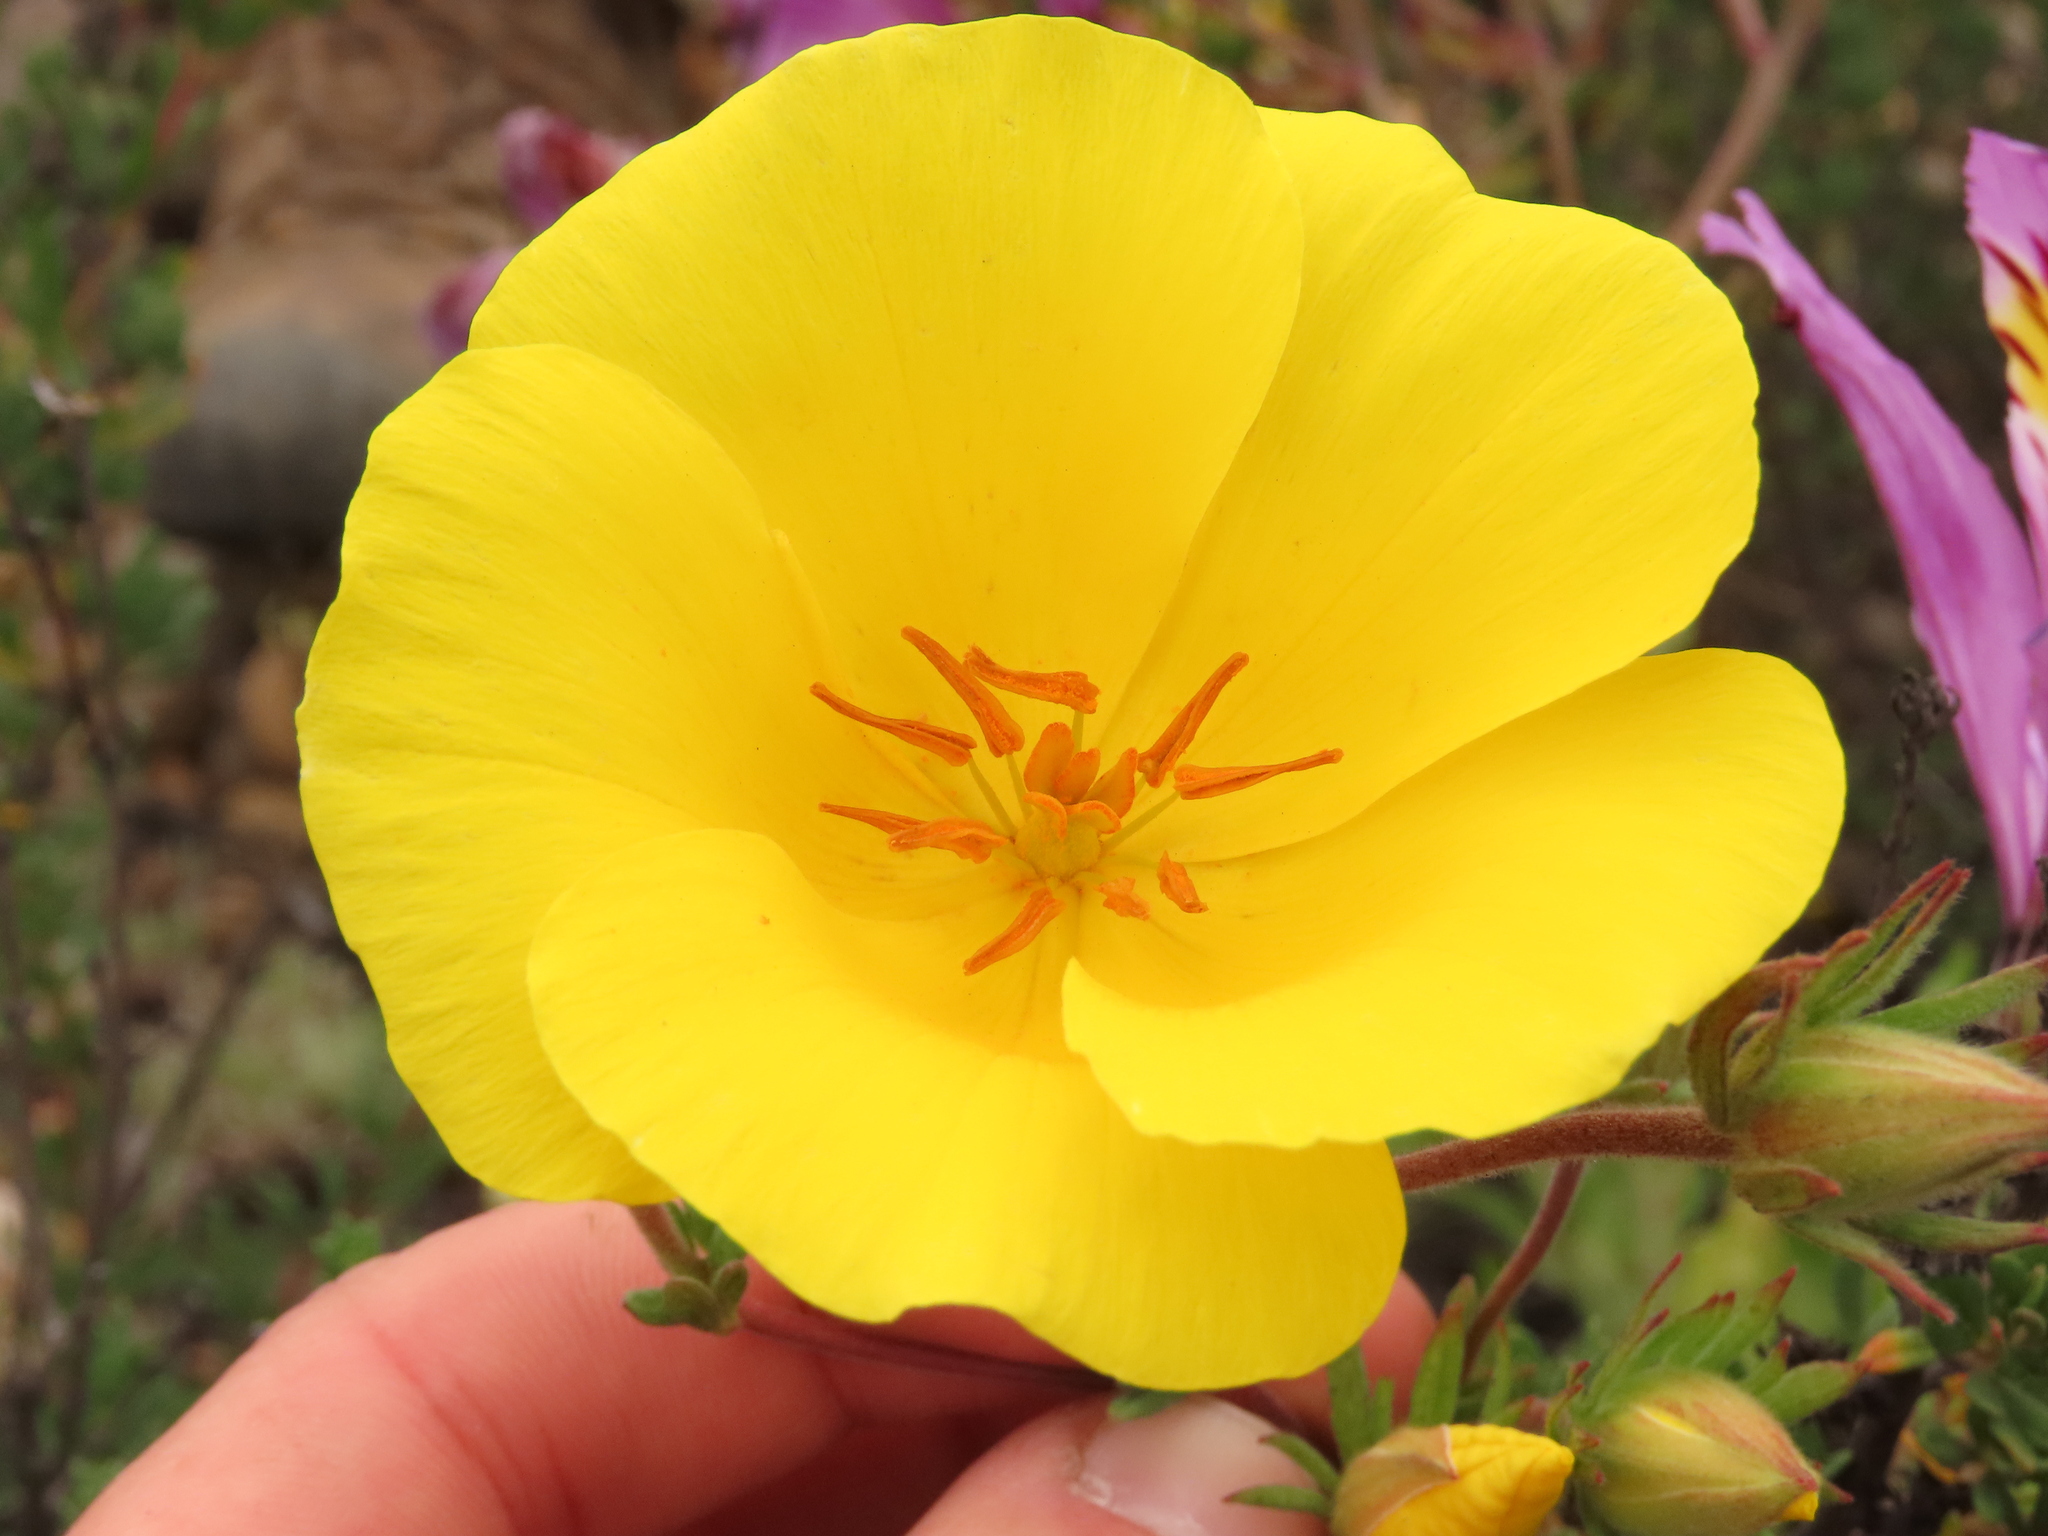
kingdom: Plantae
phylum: Tracheophyta
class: Magnoliopsida
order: Geraniales
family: Vivianiaceae
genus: Balbisia
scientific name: Balbisia peduncularis
